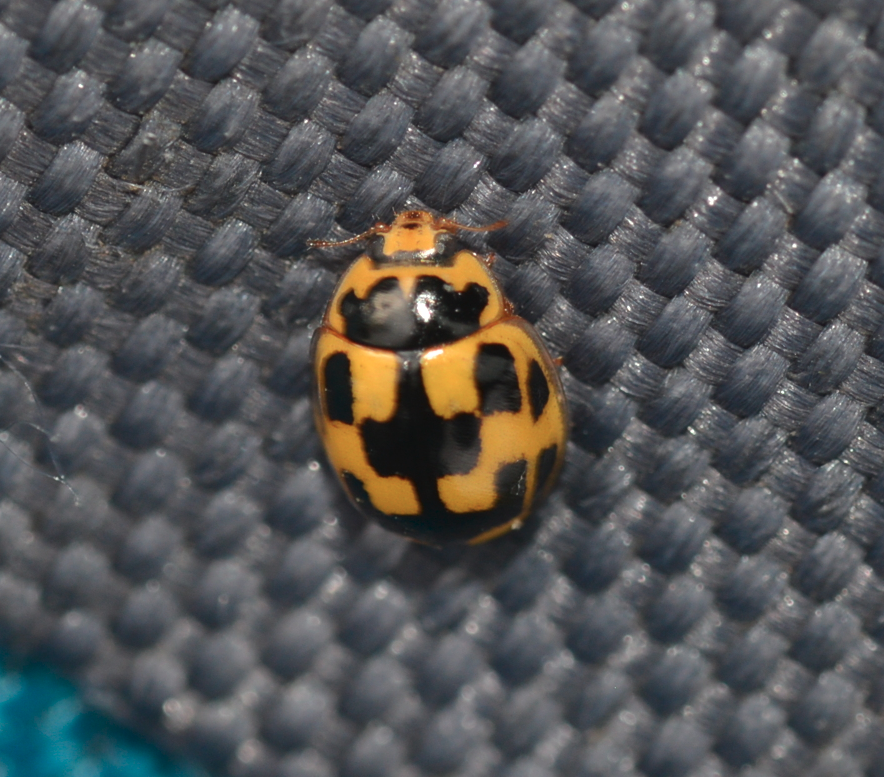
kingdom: Animalia
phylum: Arthropoda
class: Insecta
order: Coleoptera
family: Coccinellidae
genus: Propylaea
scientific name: Propylaea quatuordecimpunctata
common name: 14-spotted ladybird beetle
